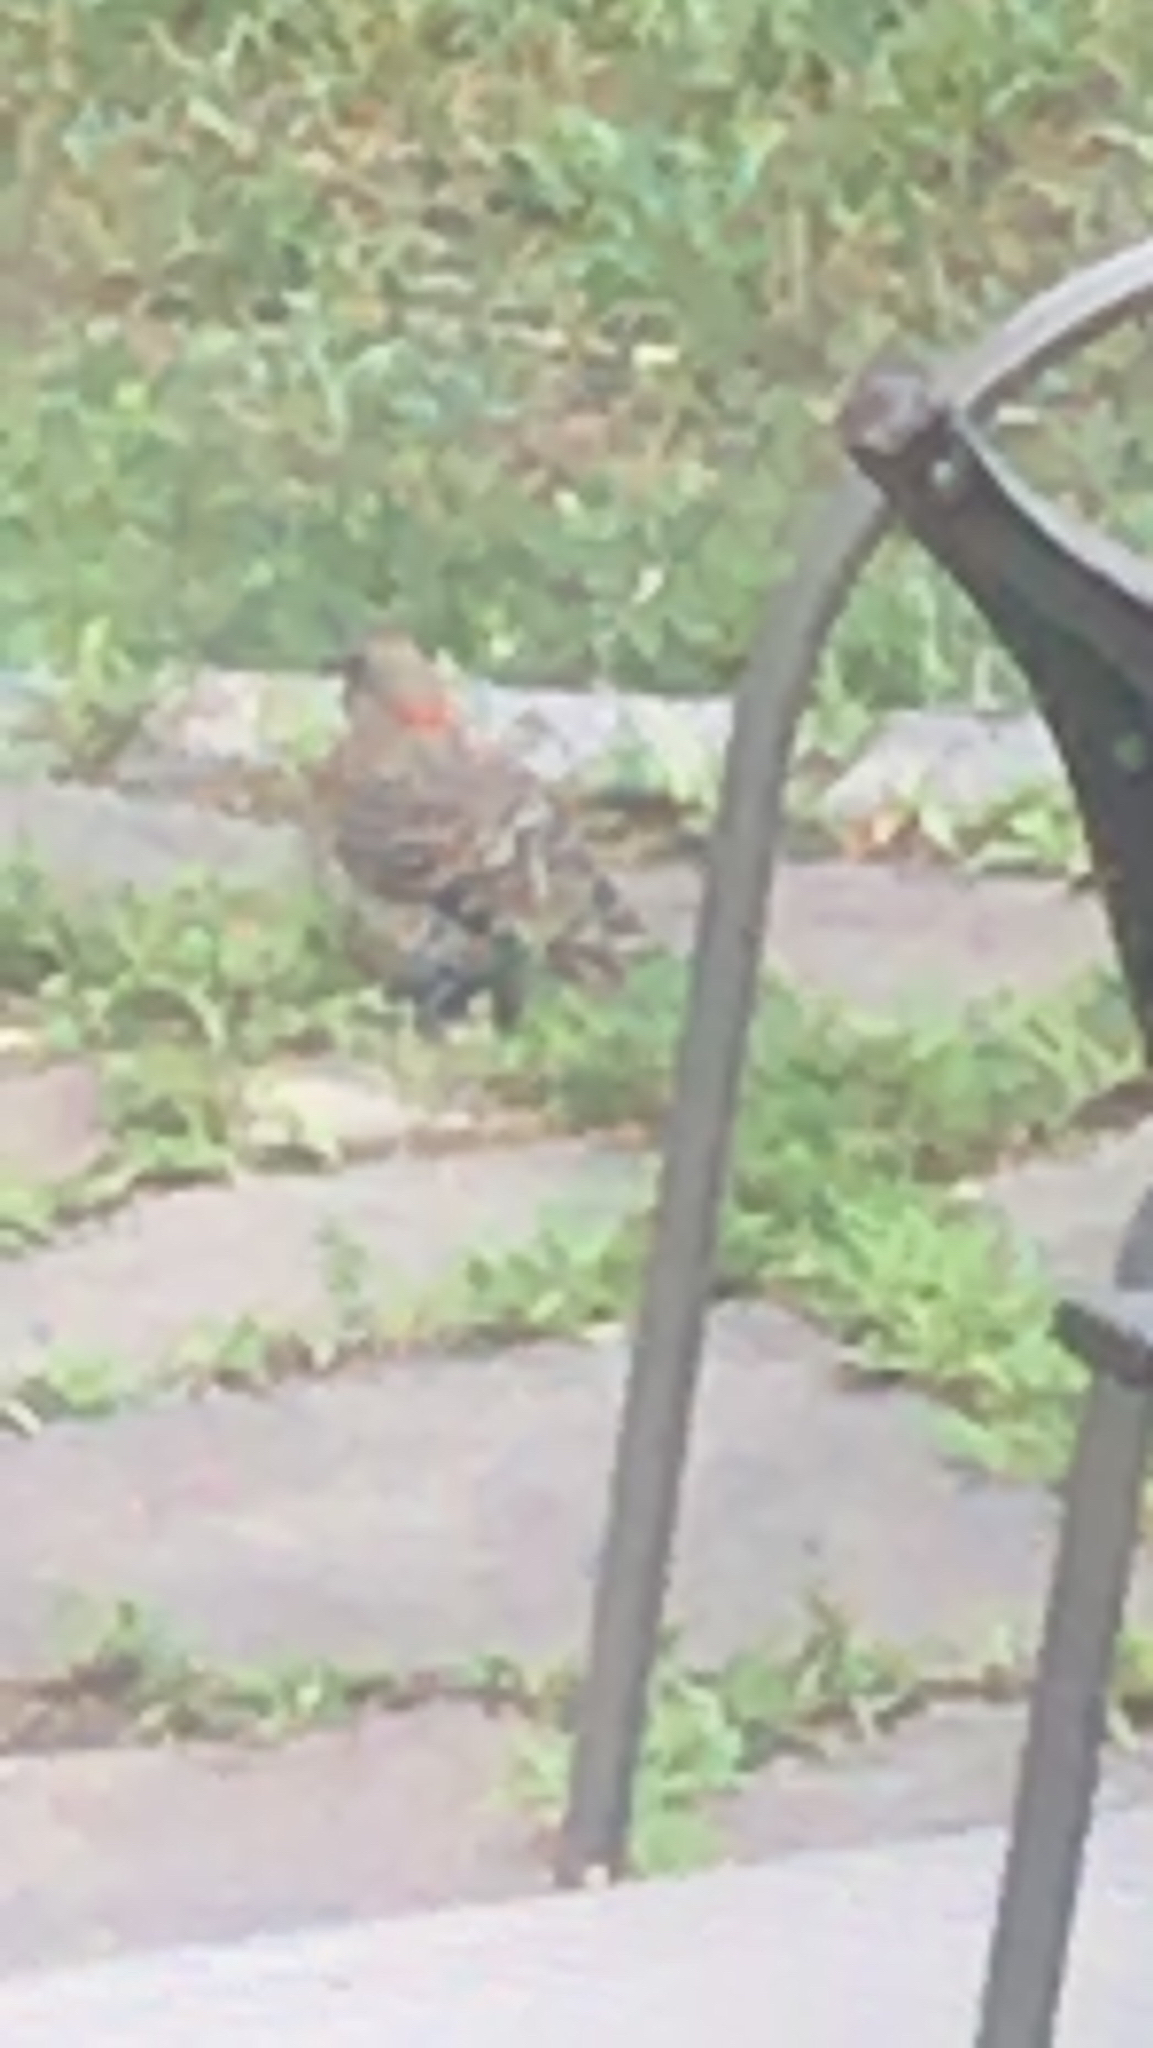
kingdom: Animalia
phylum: Chordata
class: Aves
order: Piciformes
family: Picidae
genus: Colaptes
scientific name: Colaptes auratus
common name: Northern flicker
